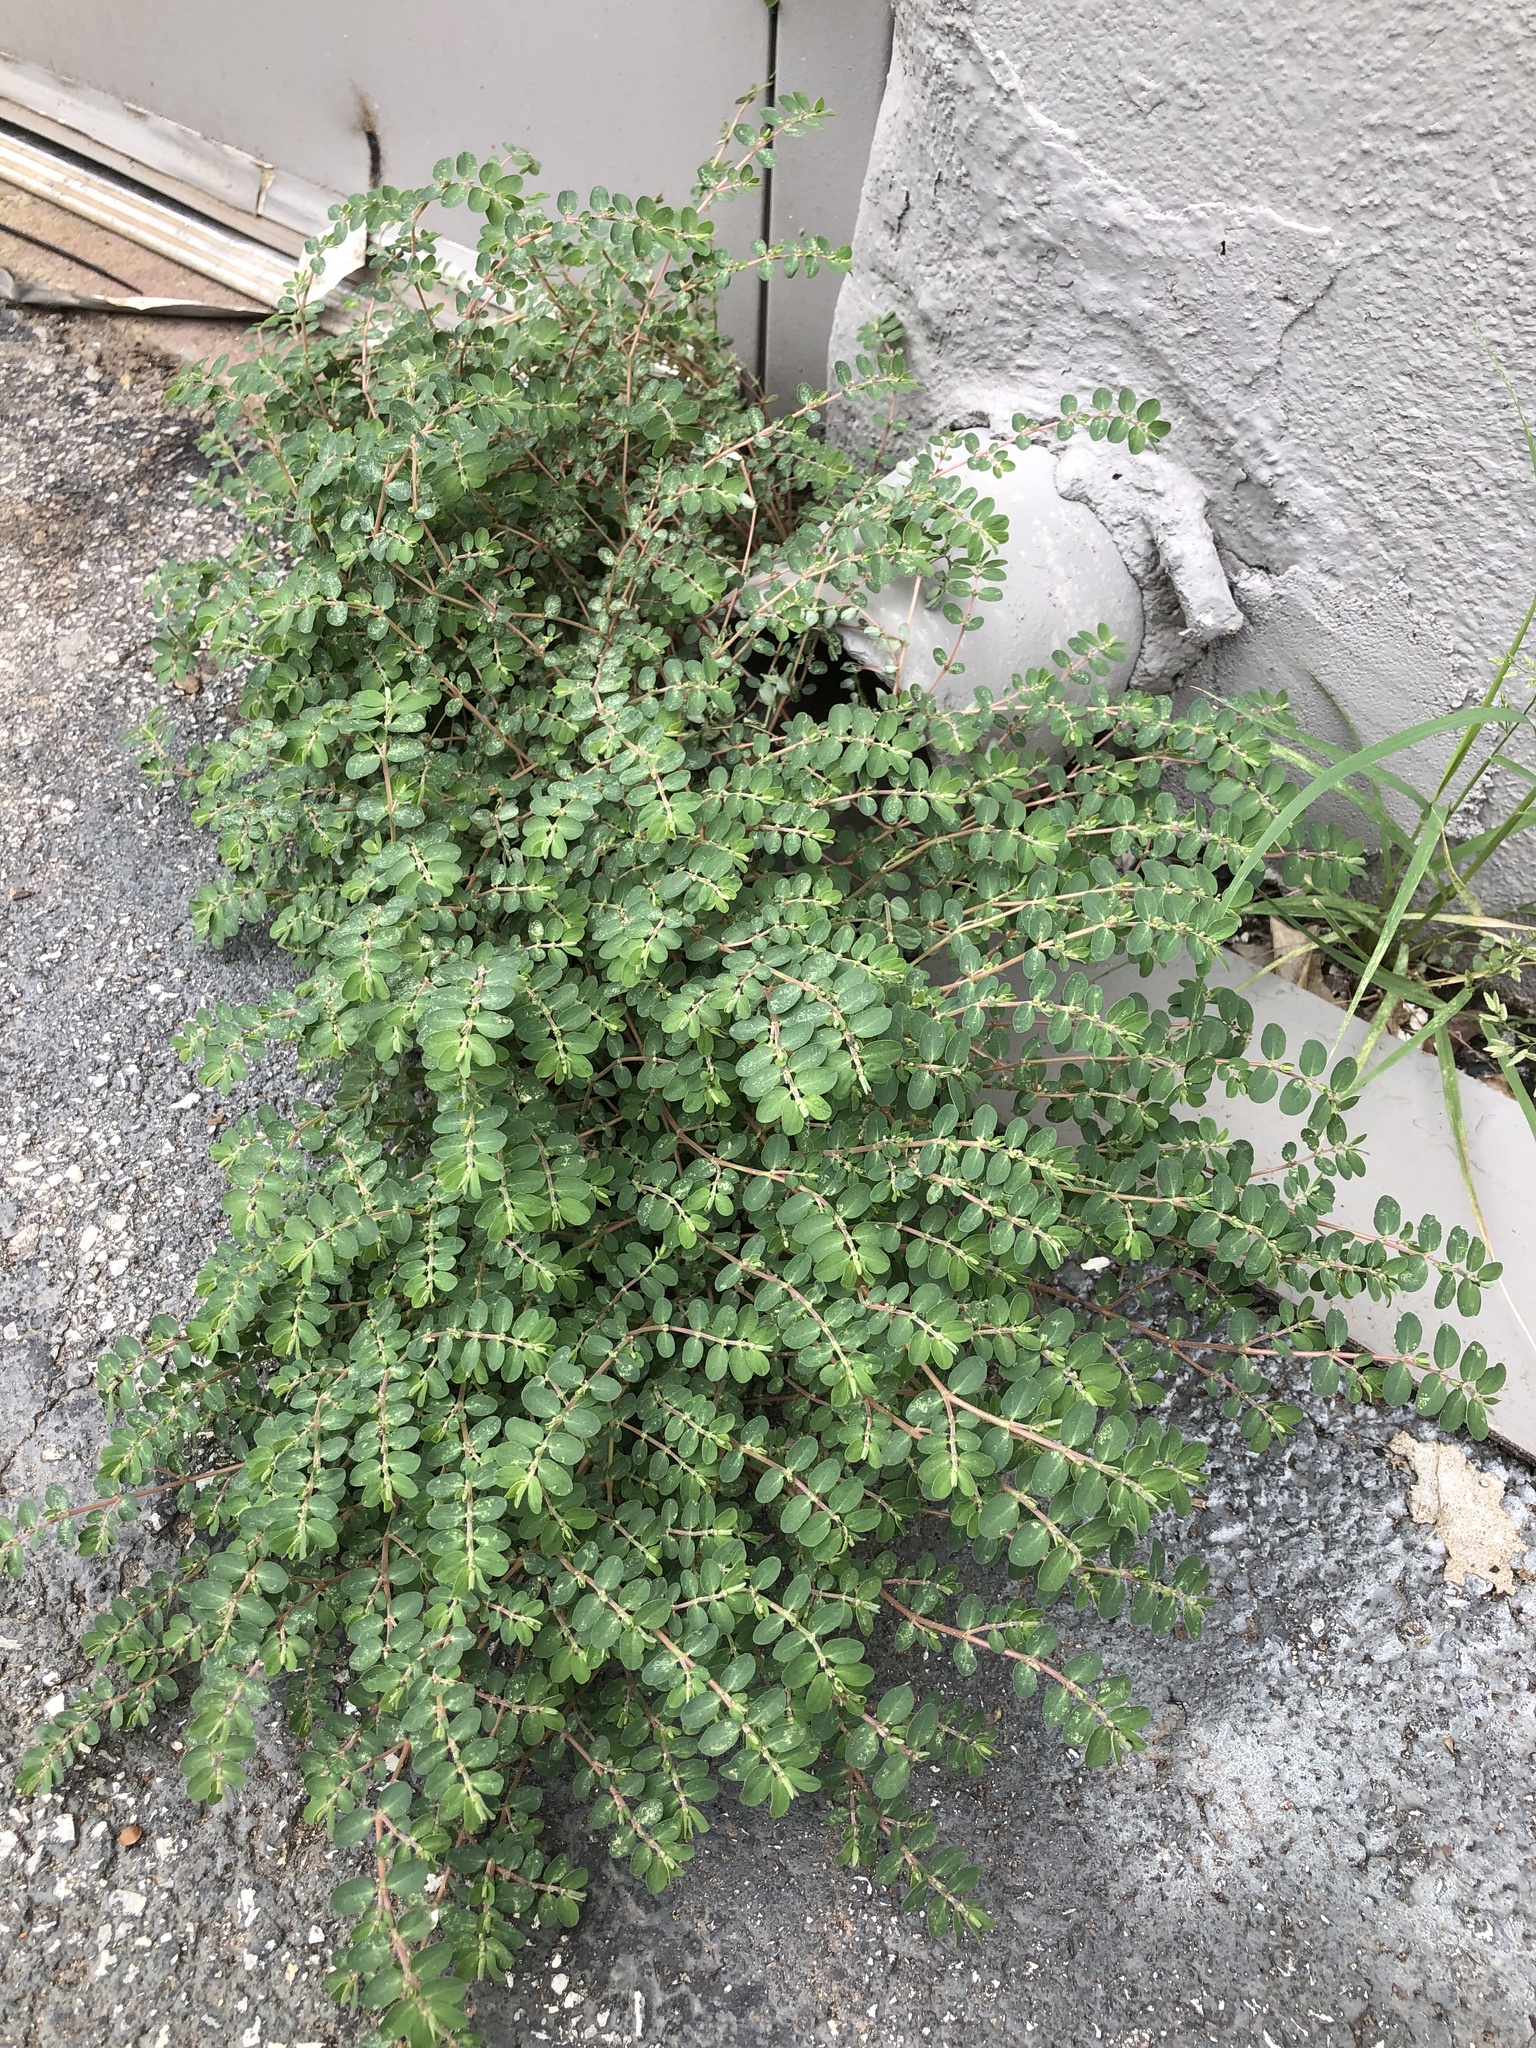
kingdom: Plantae
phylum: Tracheophyta
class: Magnoliopsida
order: Malpighiales
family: Euphorbiaceae
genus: Euphorbia
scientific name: Euphorbia prostrata
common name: Prostrate sandmat
